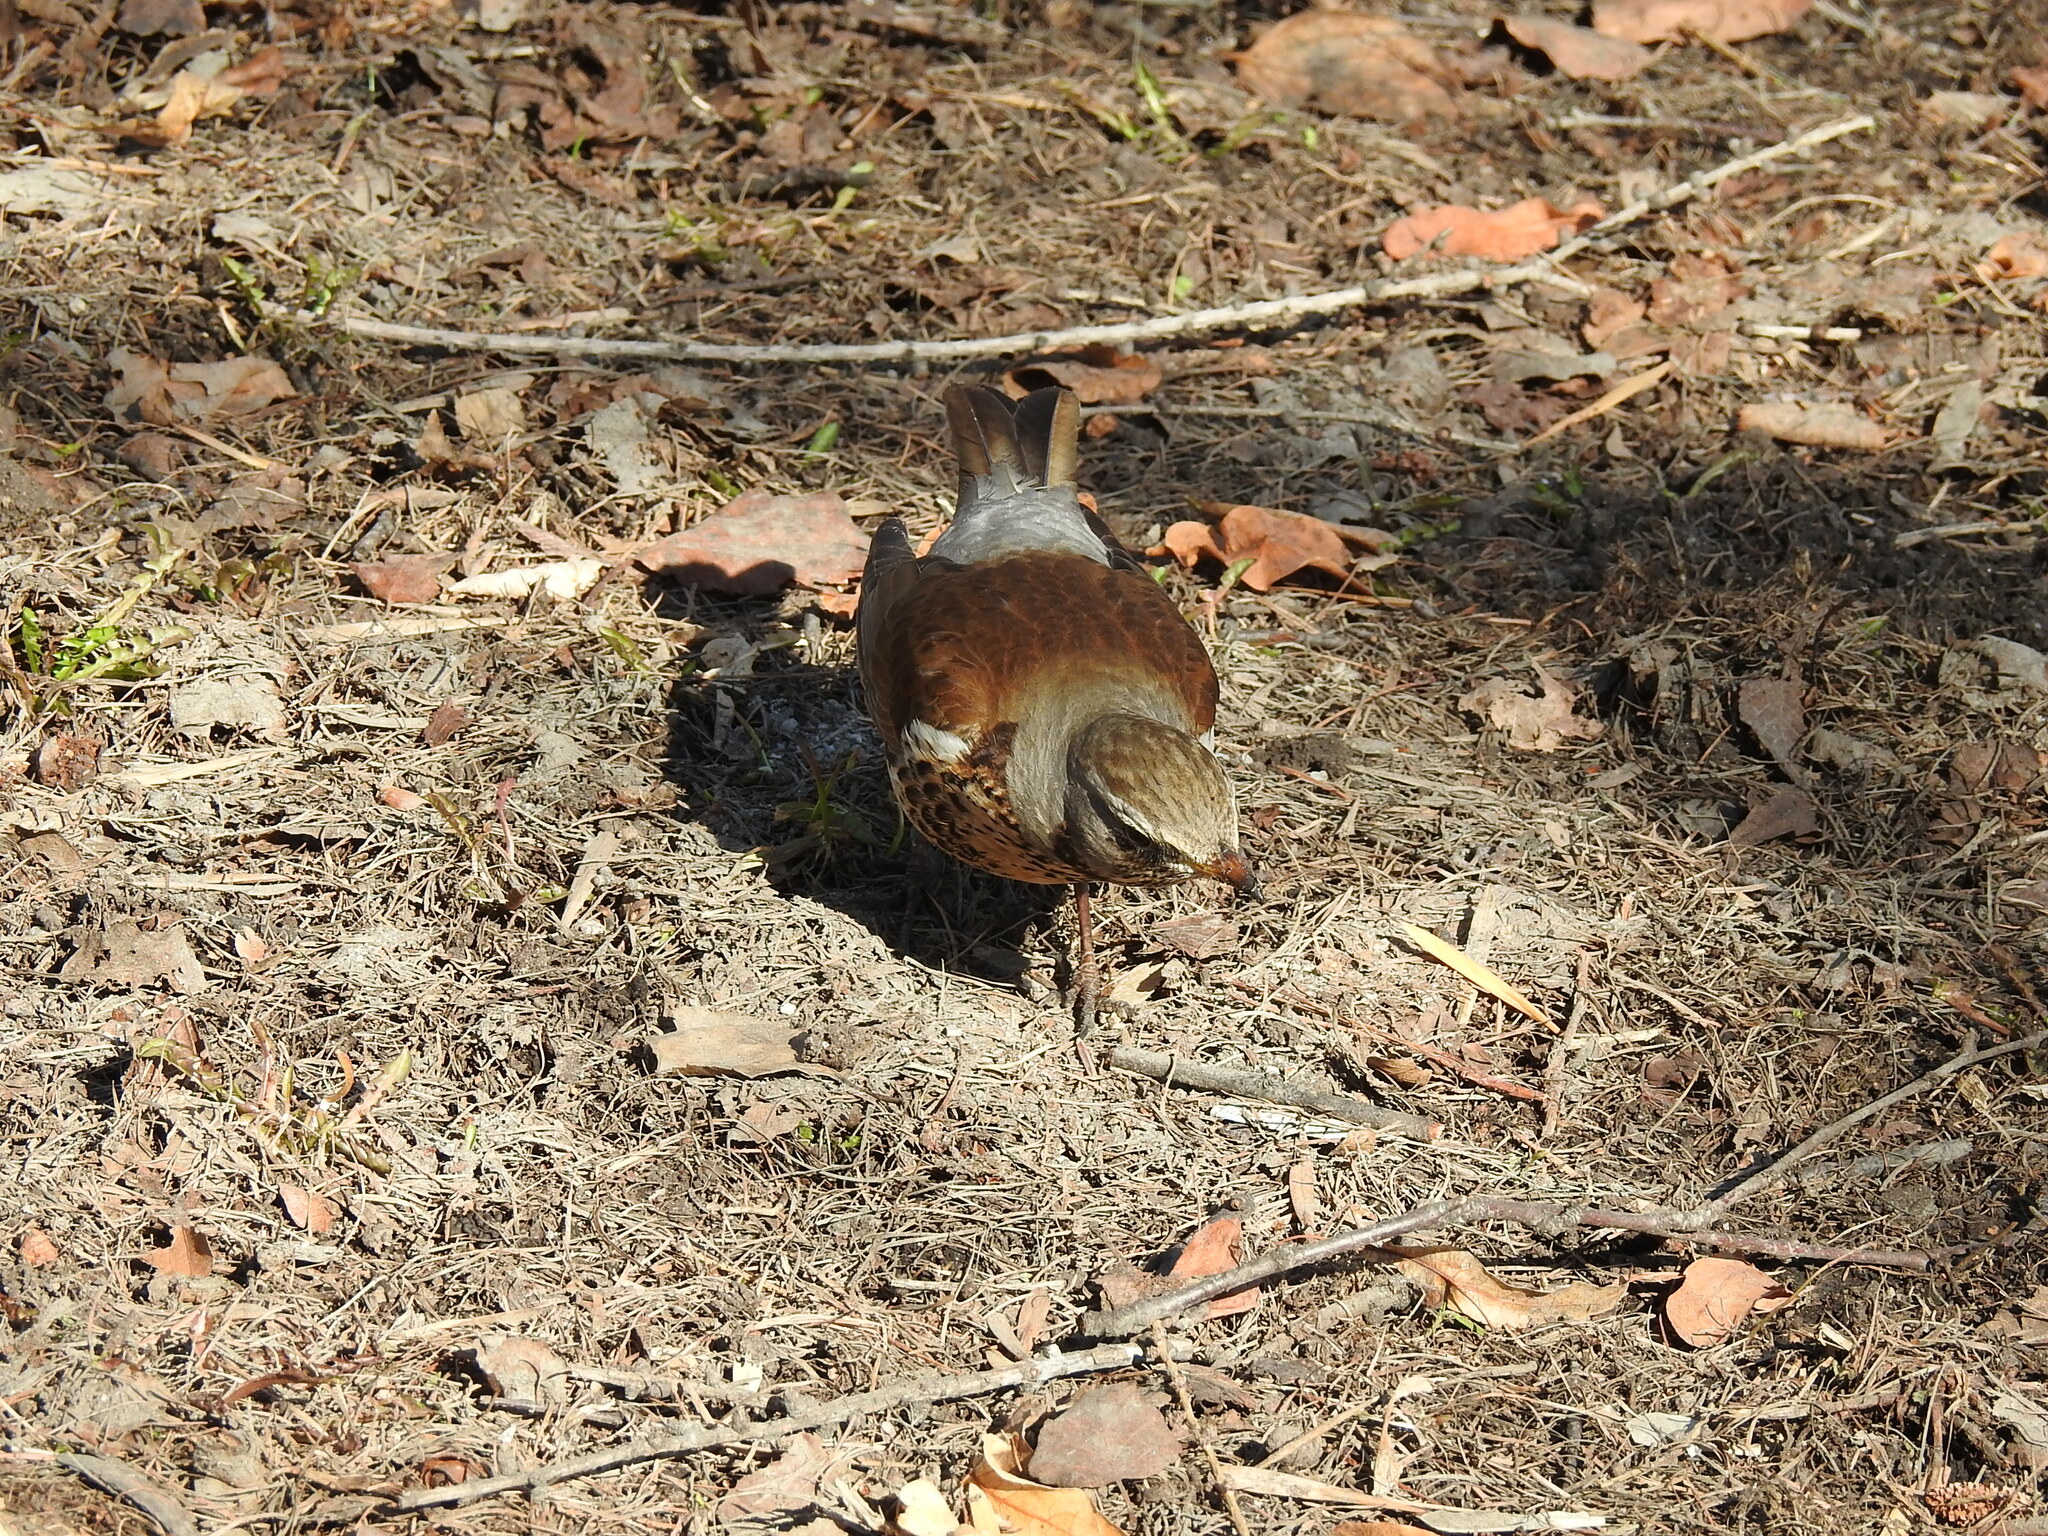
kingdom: Animalia
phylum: Chordata
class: Aves
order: Passeriformes
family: Turdidae
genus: Turdus
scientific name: Turdus pilaris
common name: Fieldfare
